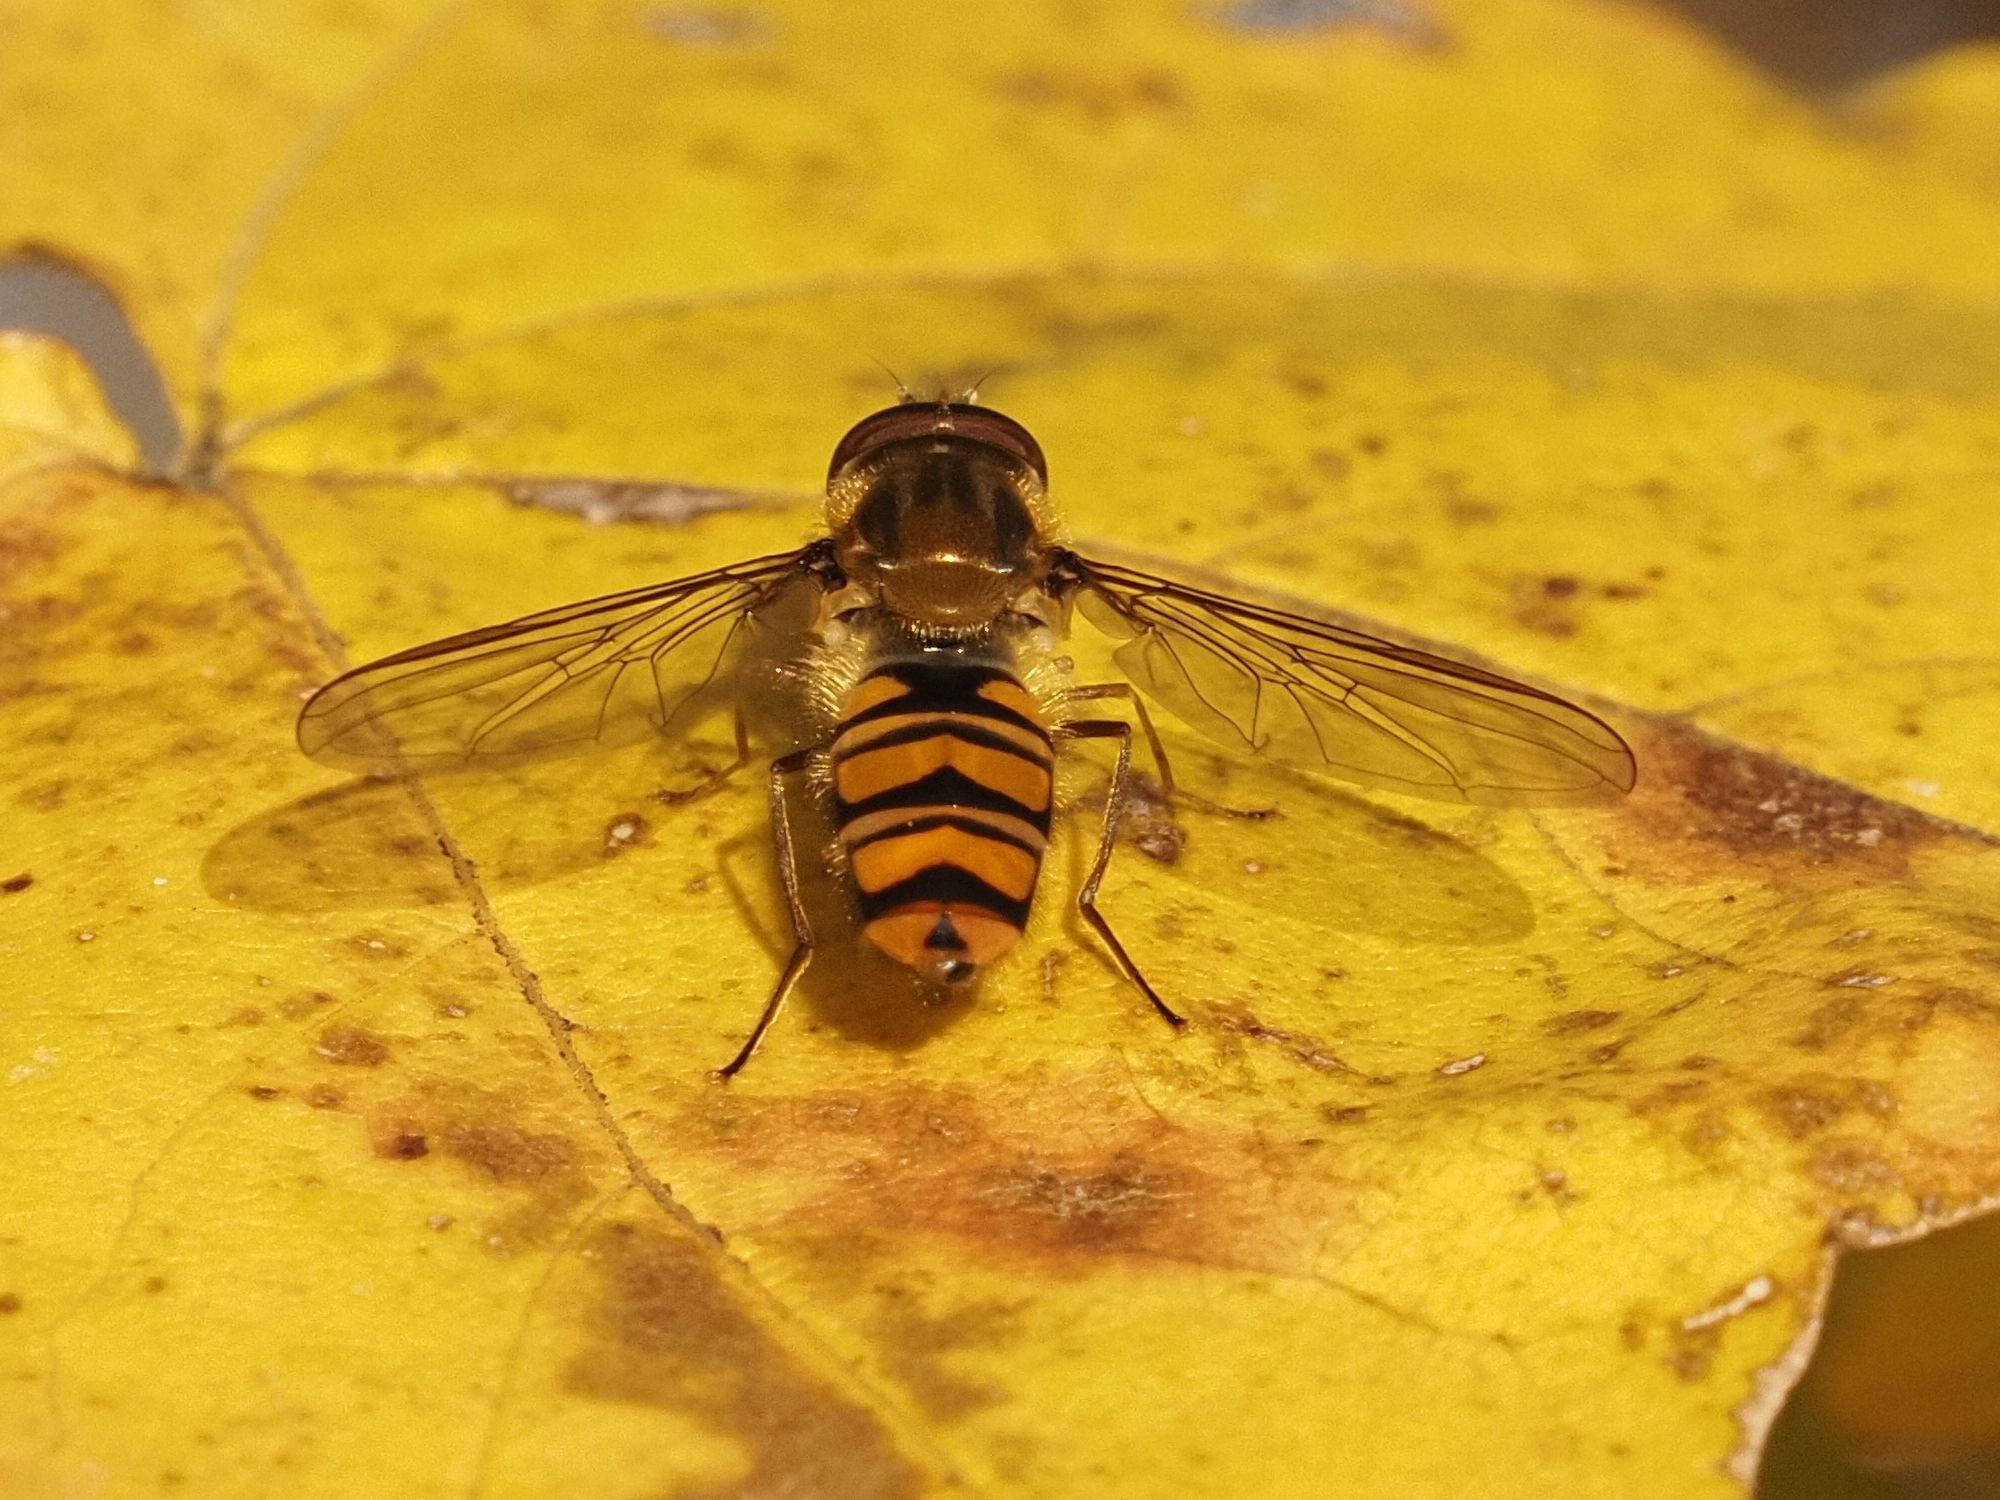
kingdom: Animalia
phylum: Arthropoda
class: Insecta
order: Diptera
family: Syrphidae
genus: Episyrphus
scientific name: Episyrphus balteatus
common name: Marmalade hoverfly
